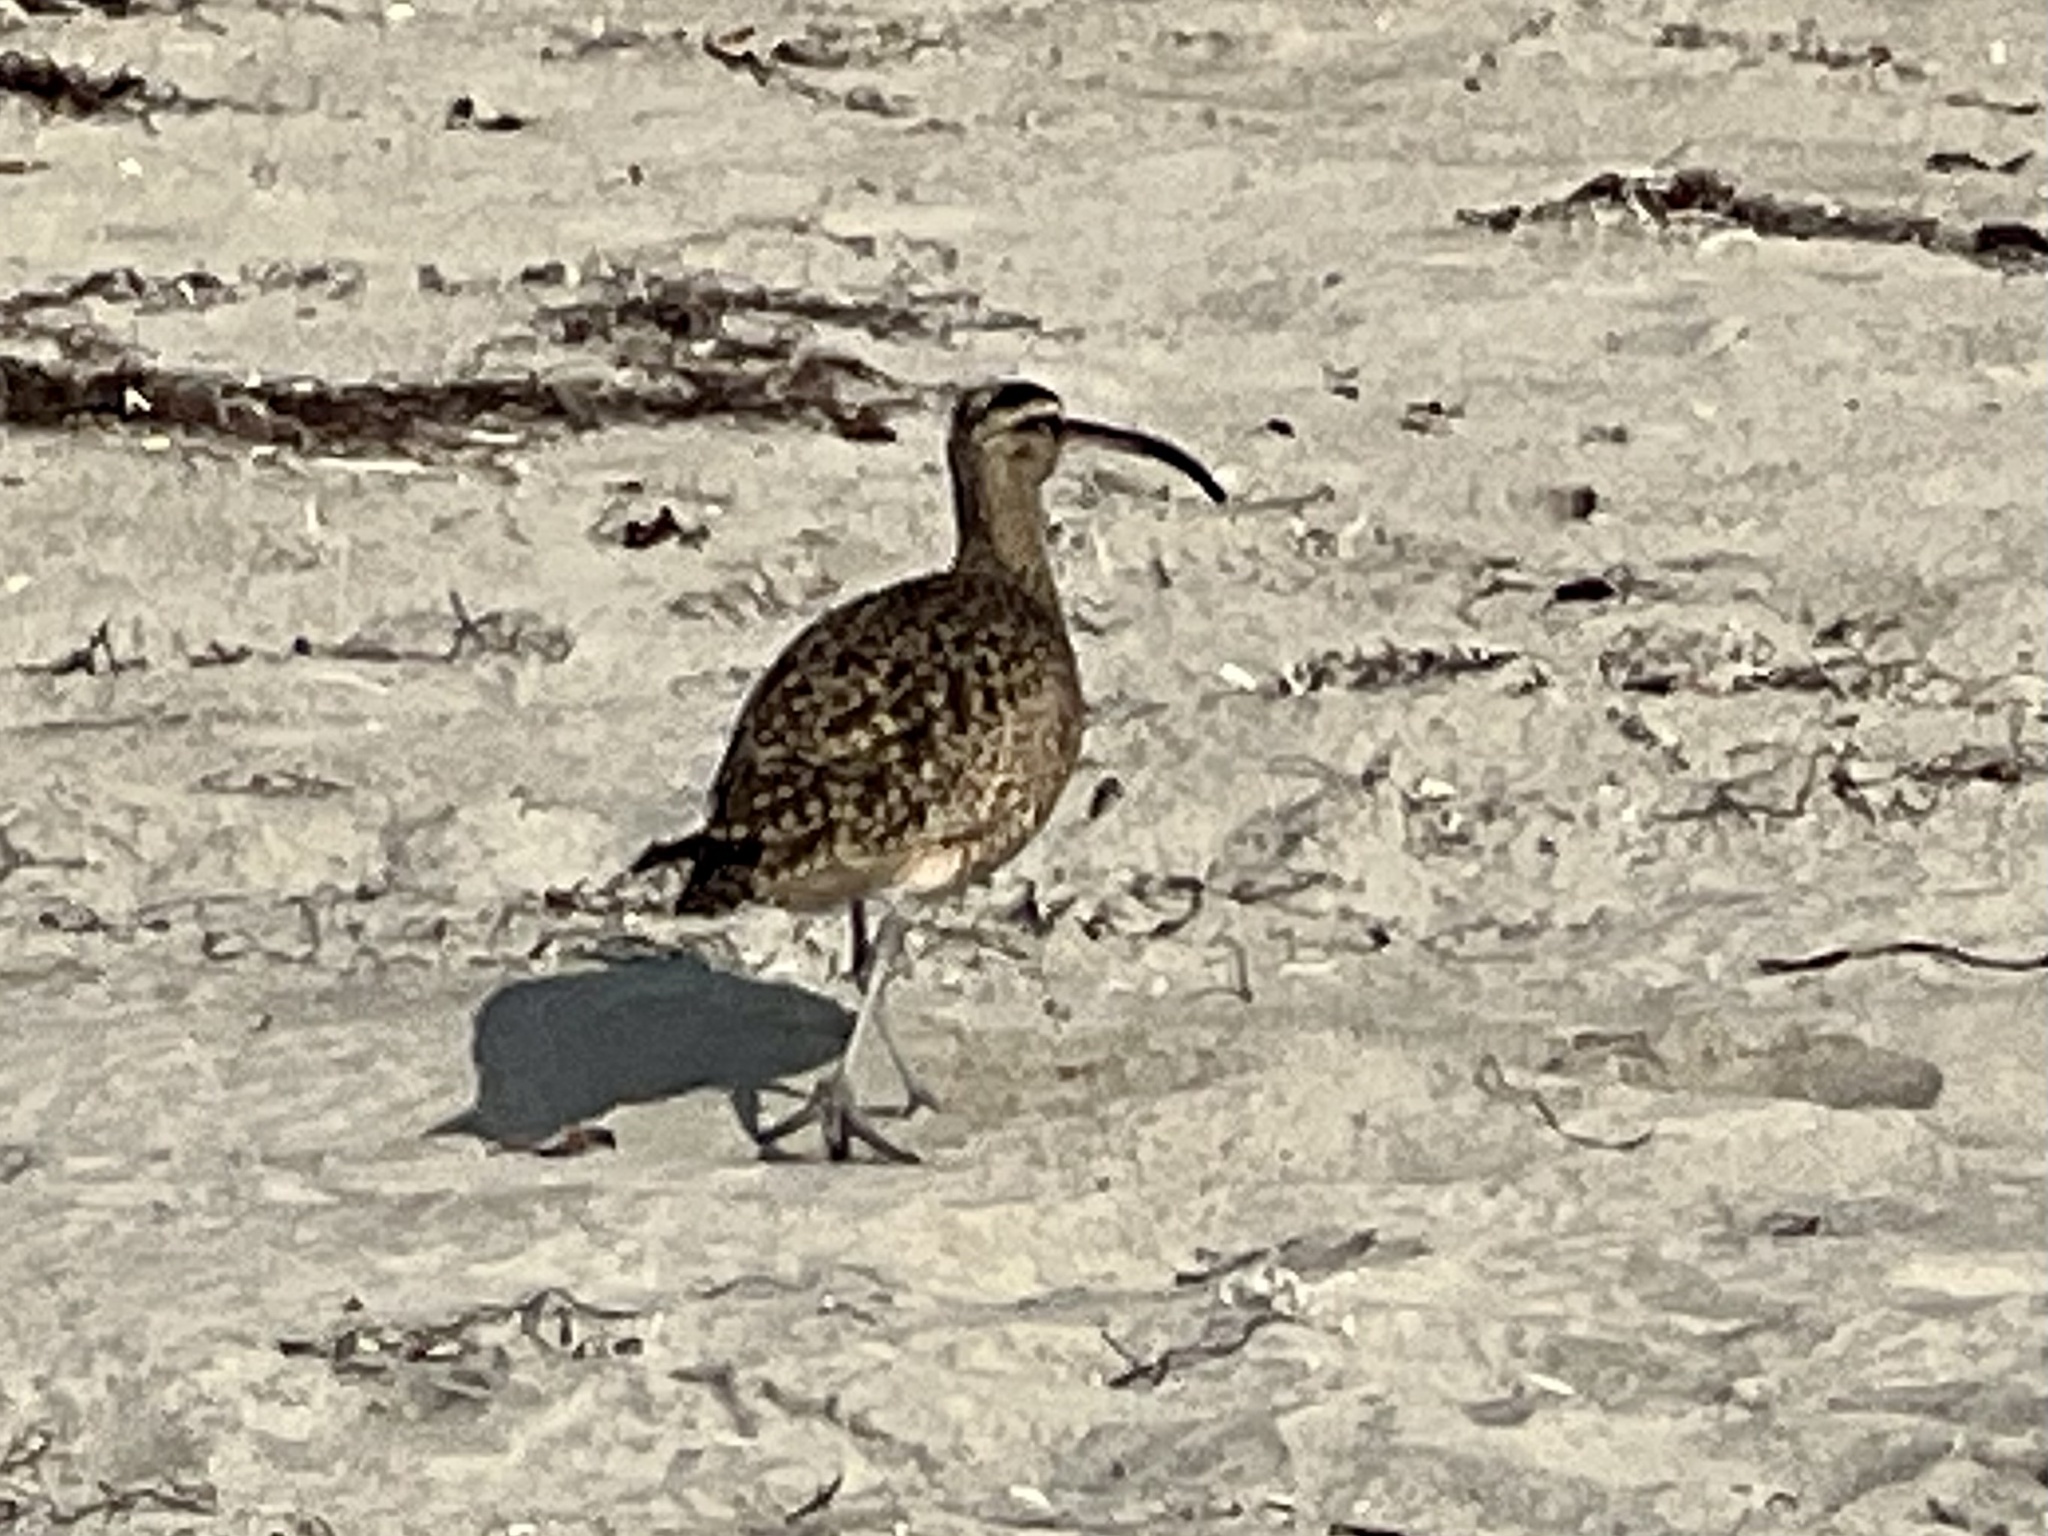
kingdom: Animalia
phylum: Chordata
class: Aves
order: Charadriiformes
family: Scolopacidae
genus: Numenius
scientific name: Numenius phaeopus
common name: Whimbrel
